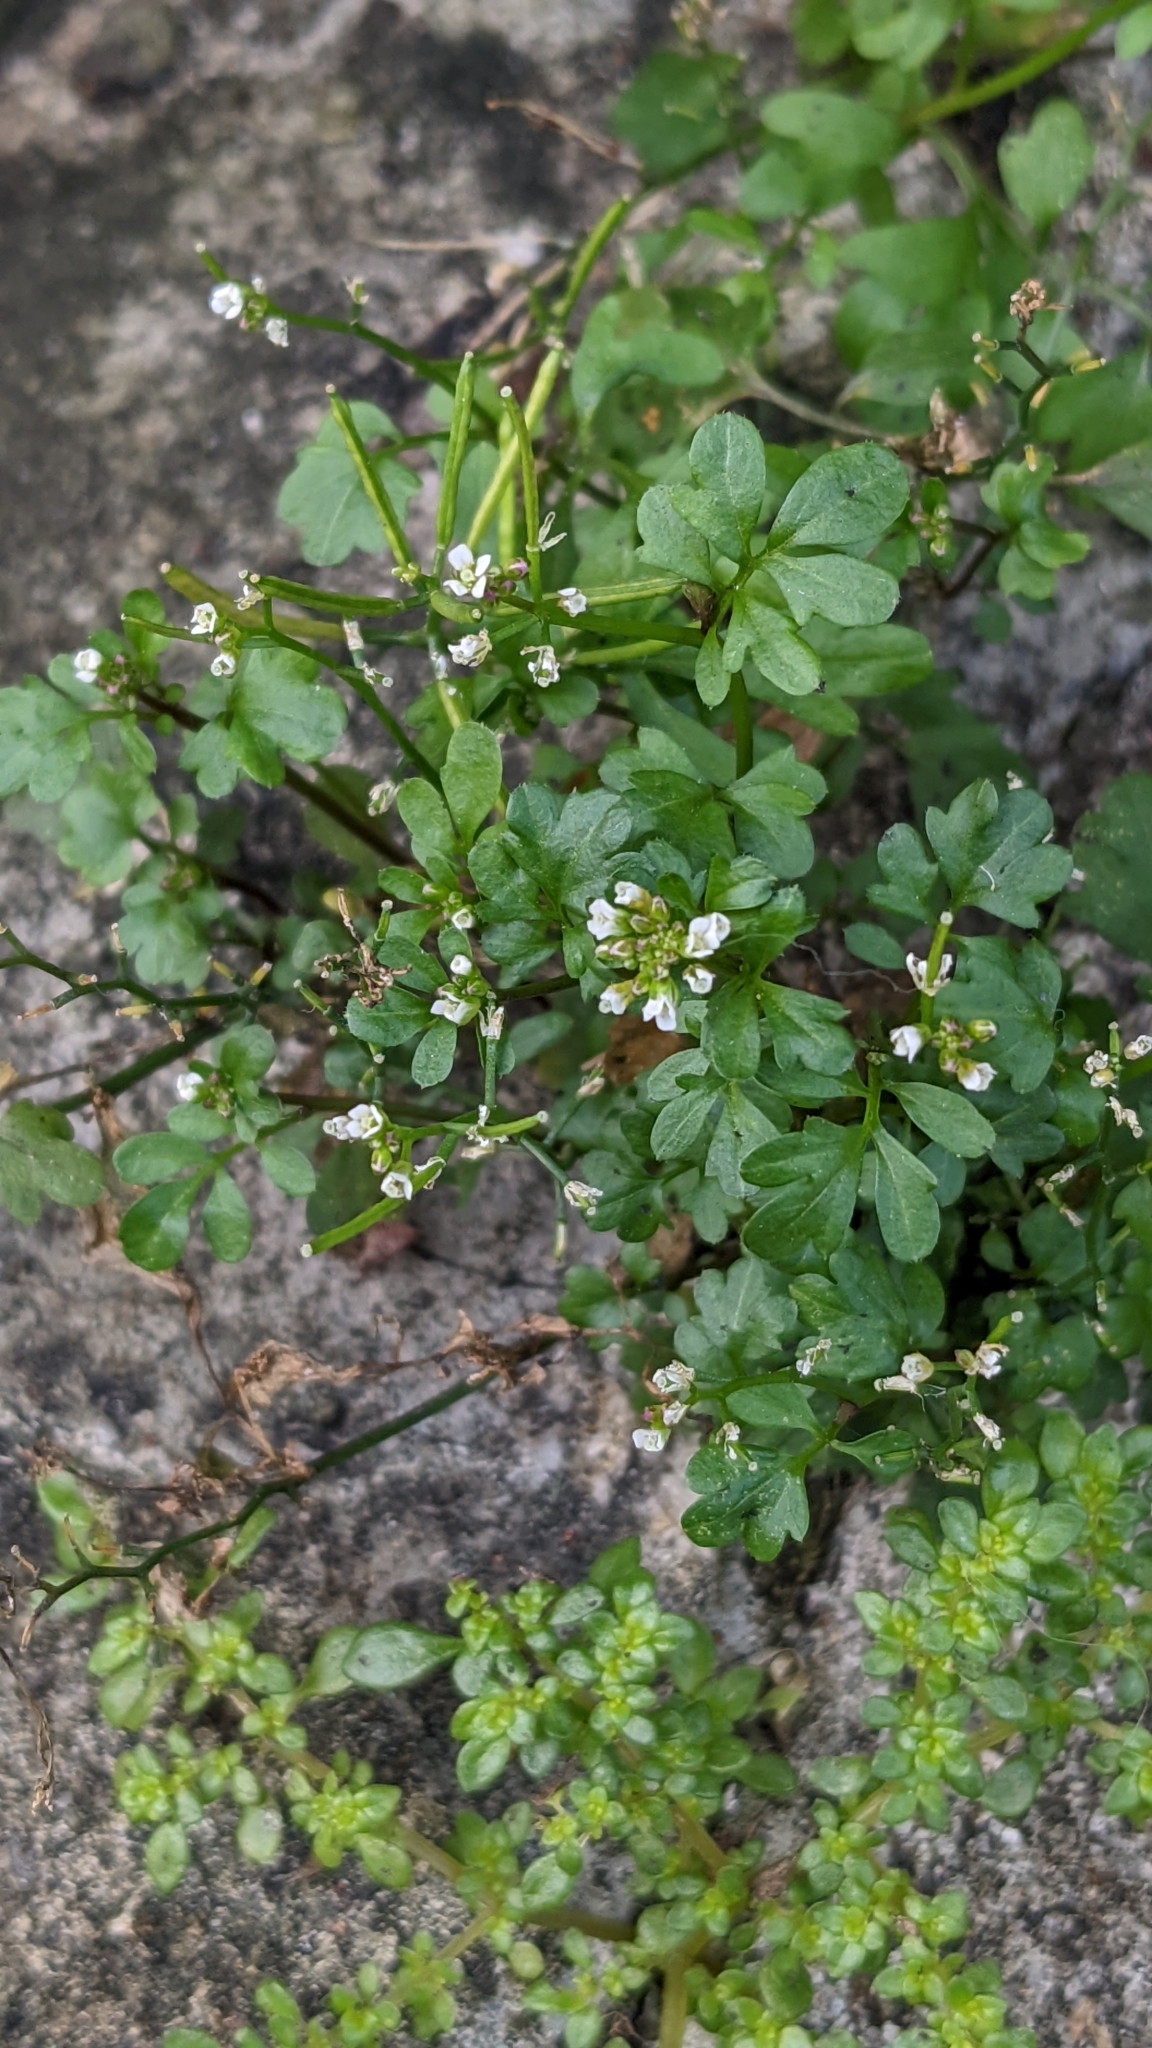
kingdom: Plantae
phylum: Tracheophyta
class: Magnoliopsida
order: Brassicales
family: Brassicaceae
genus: Cardamine
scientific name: Cardamine flexuosa
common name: Woodland bittercress
